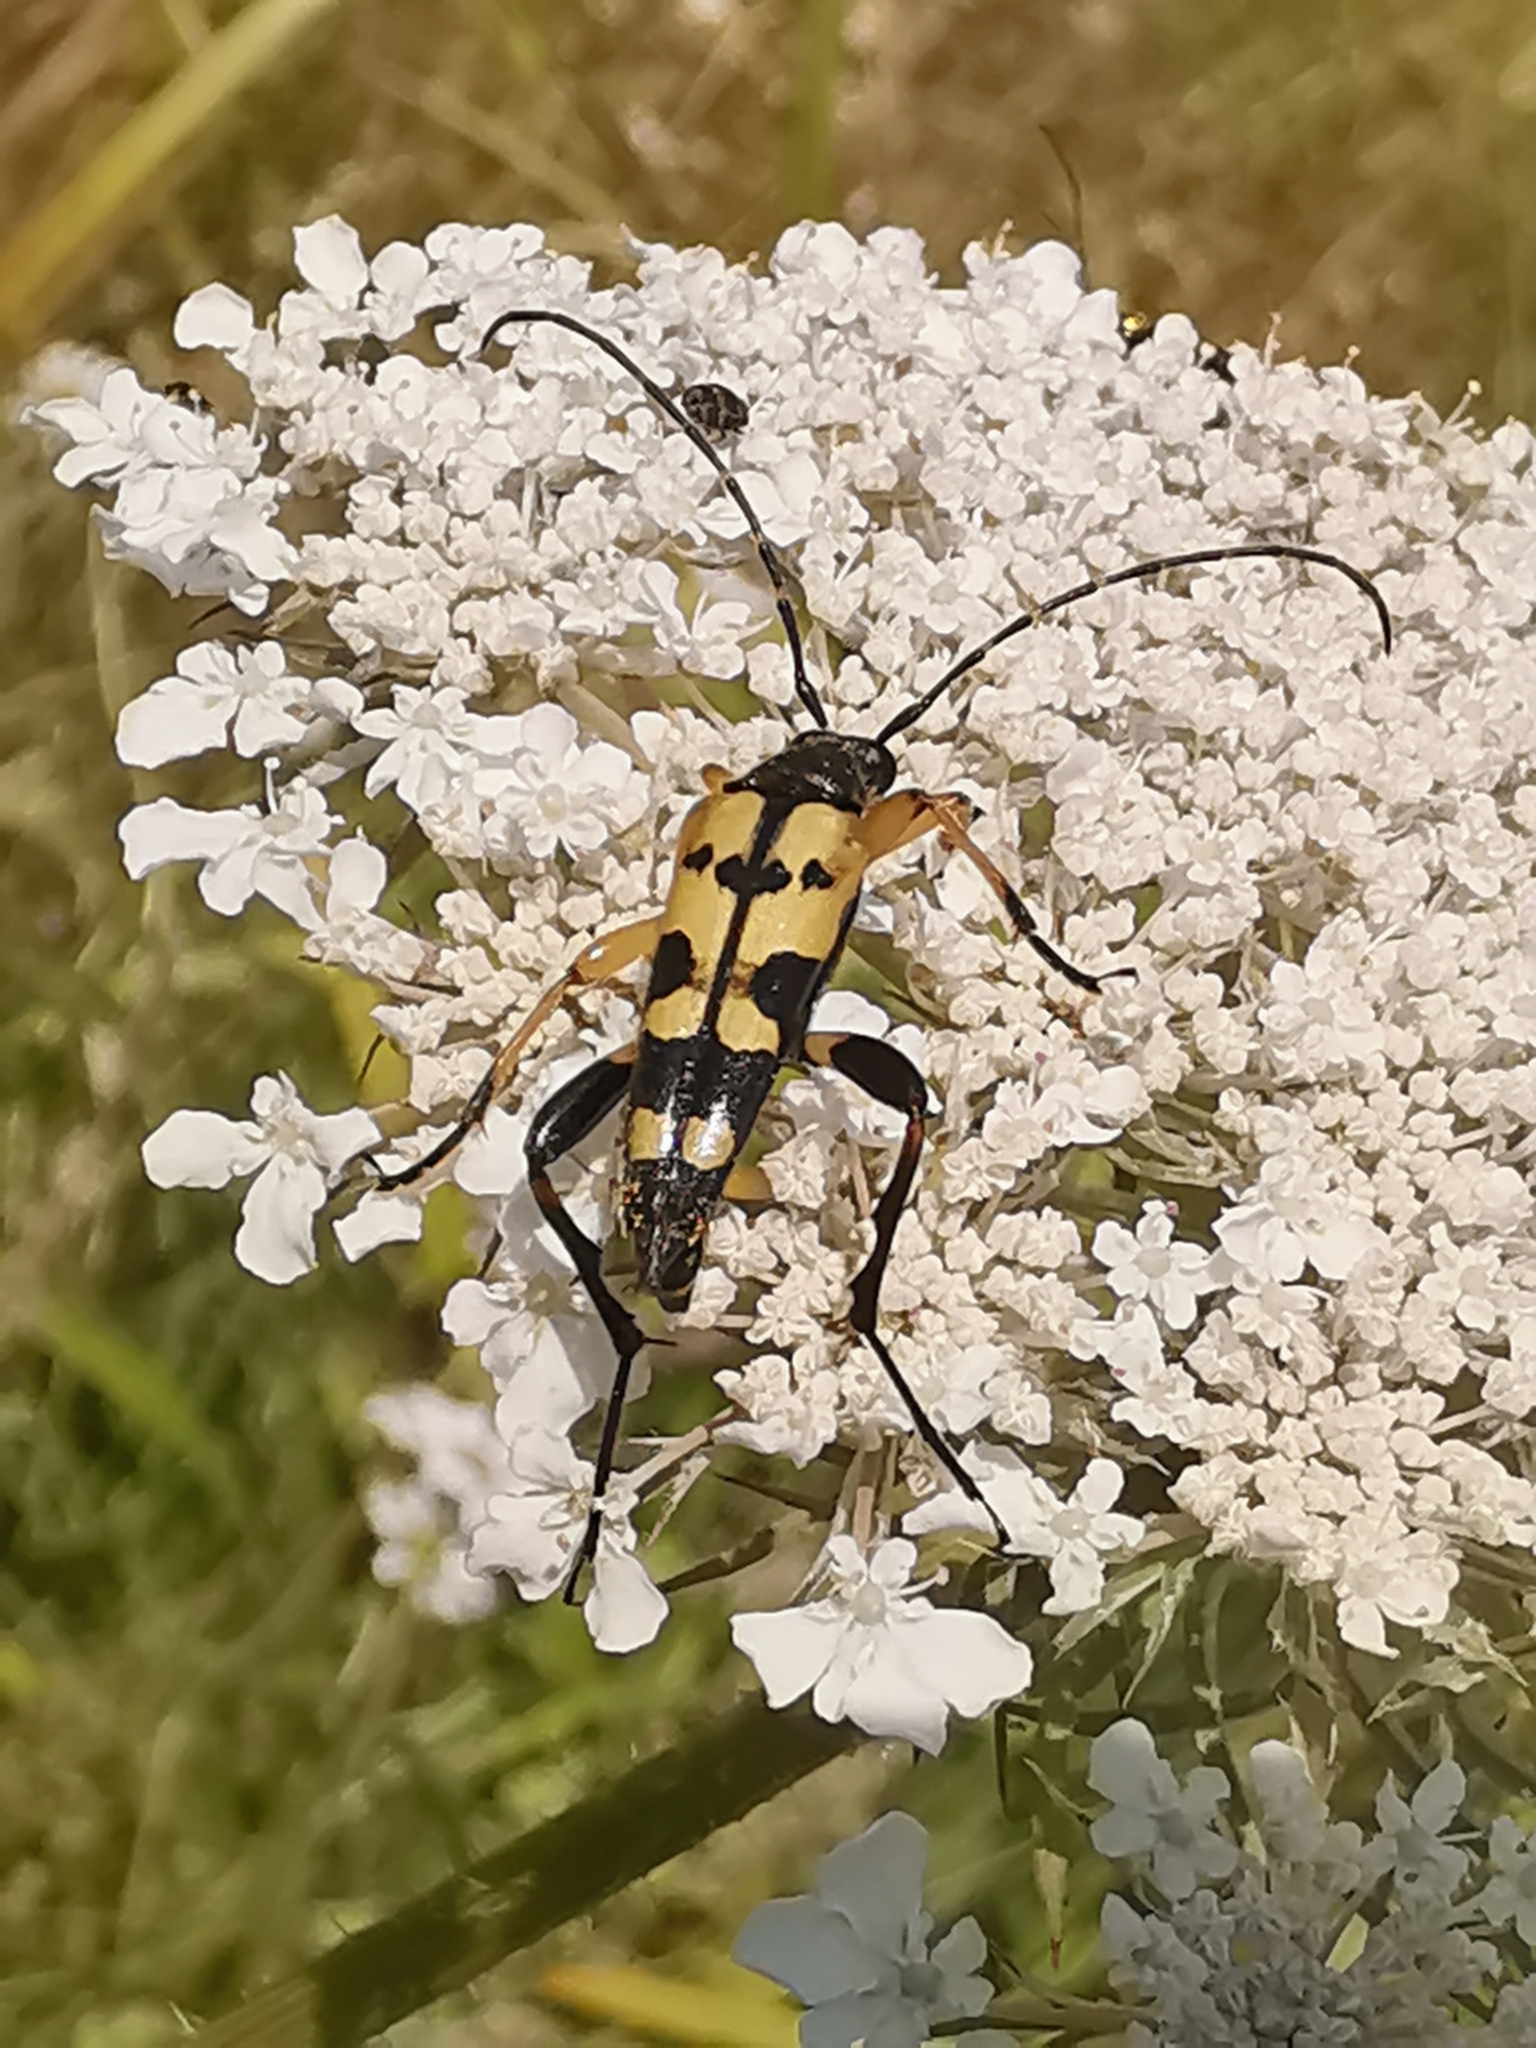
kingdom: Animalia
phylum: Arthropoda
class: Insecta
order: Coleoptera
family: Cerambycidae
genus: Rutpela
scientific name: Rutpela maculata
